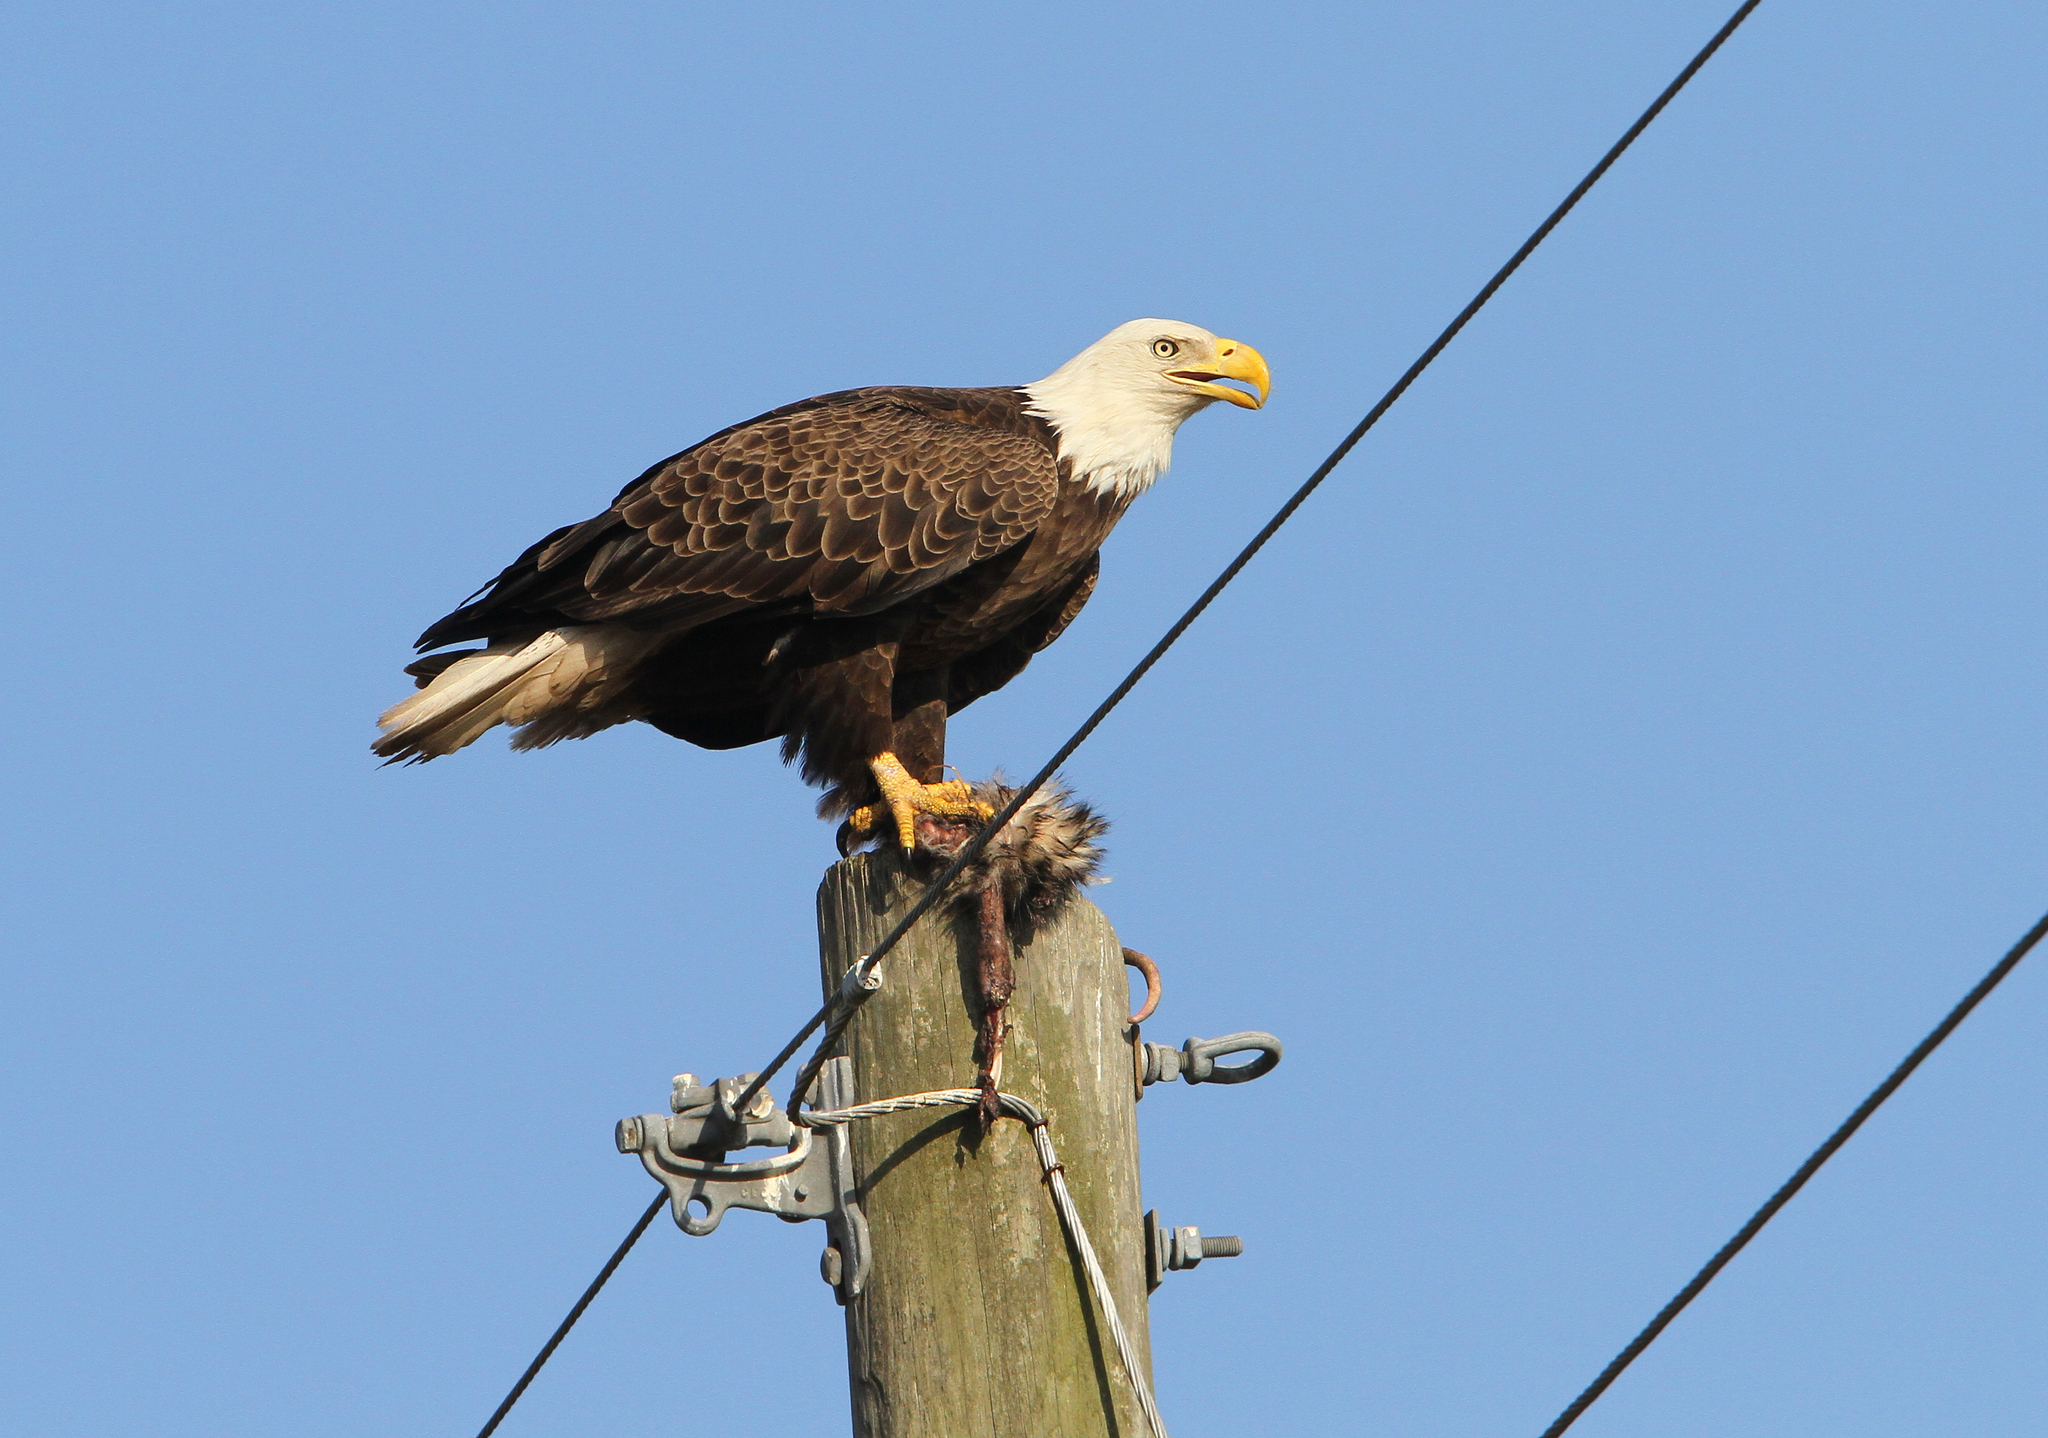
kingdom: Animalia
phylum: Chordata
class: Aves
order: Accipitriformes
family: Accipitridae
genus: Haliaeetus
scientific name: Haliaeetus leucocephalus
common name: Bald eagle
